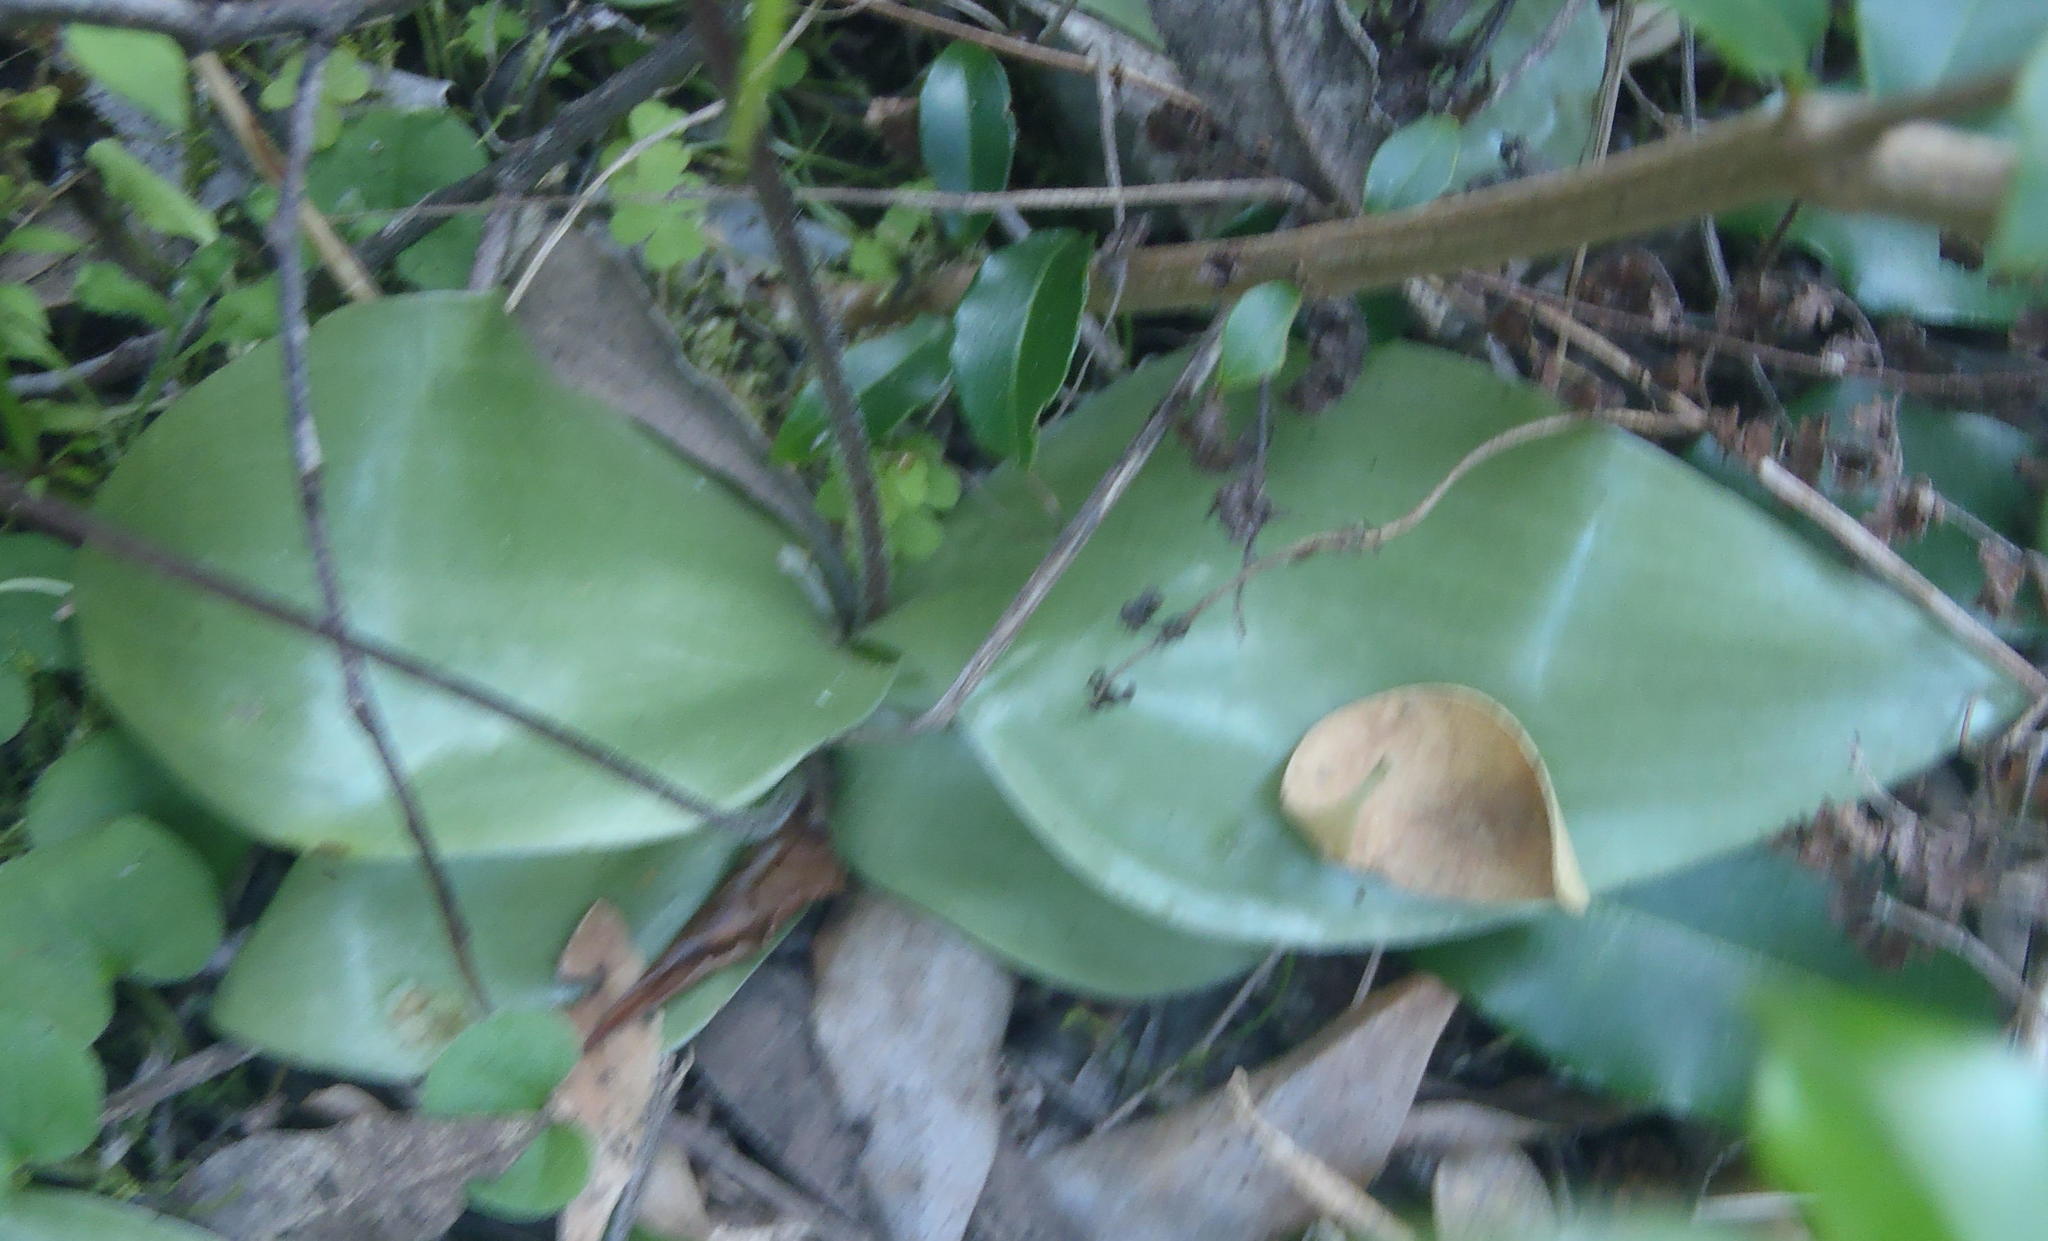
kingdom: Plantae
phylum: Tracheophyta
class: Liliopsida
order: Asparagales
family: Orchidaceae
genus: Holothrix
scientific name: Holothrix parviflora
